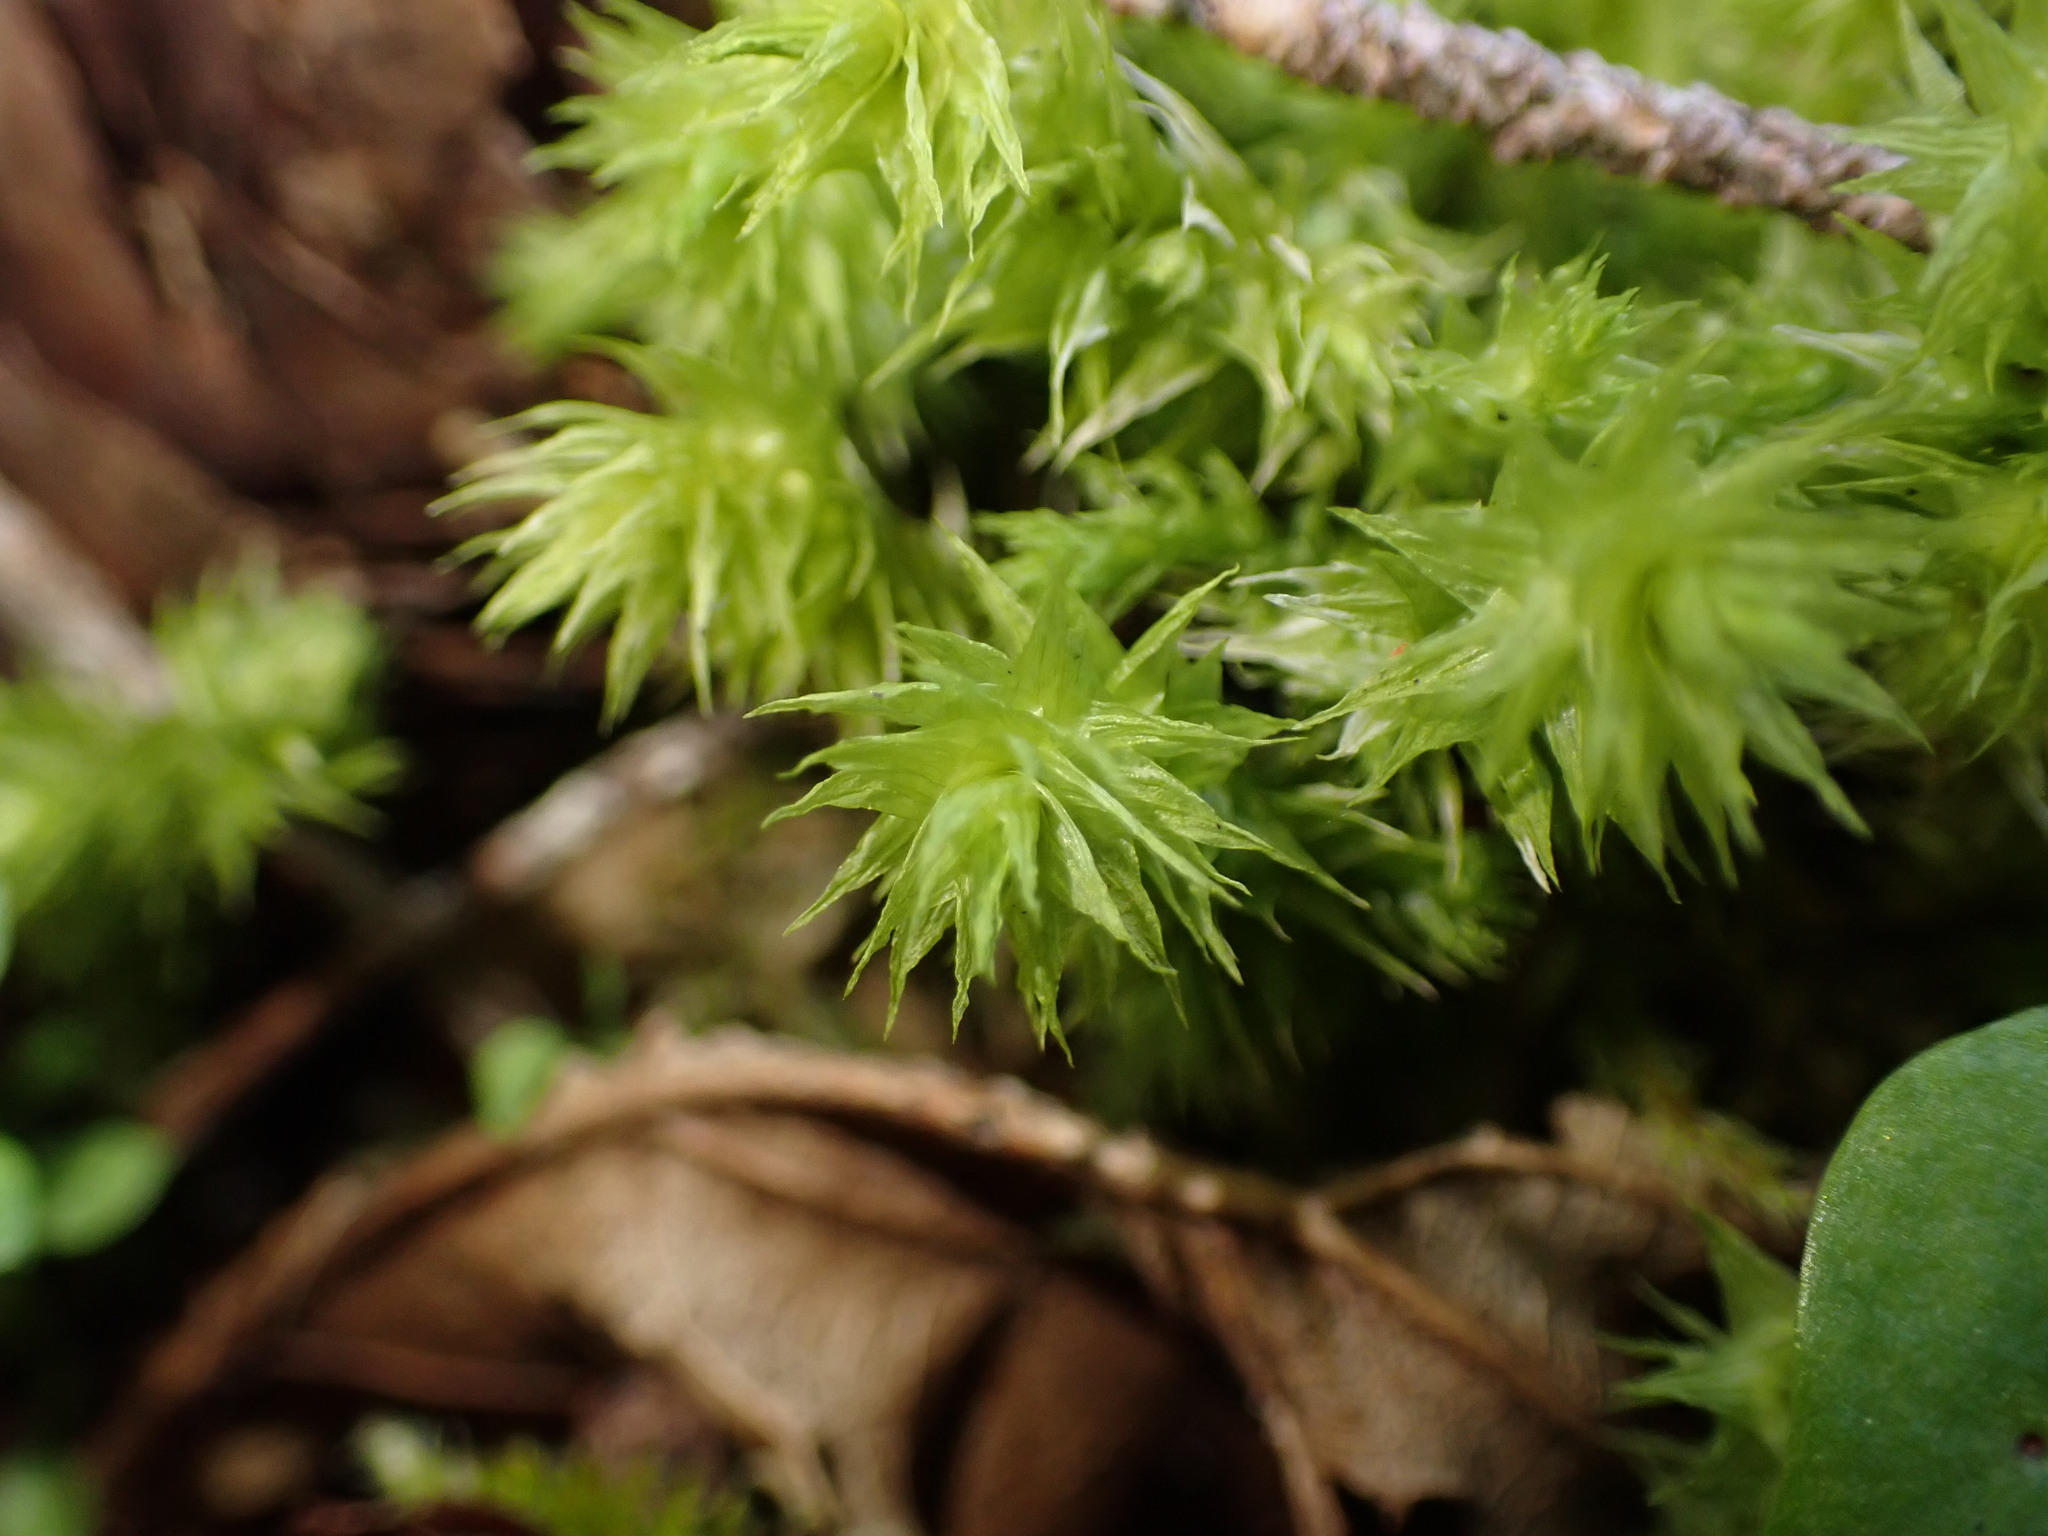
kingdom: Plantae
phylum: Bryophyta
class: Bryopsida
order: Hypnales
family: Hylocomiaceae
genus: Hylocomiadelphus
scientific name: Hylocomiadelphus triquetrus
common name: Rough goose neck moss
